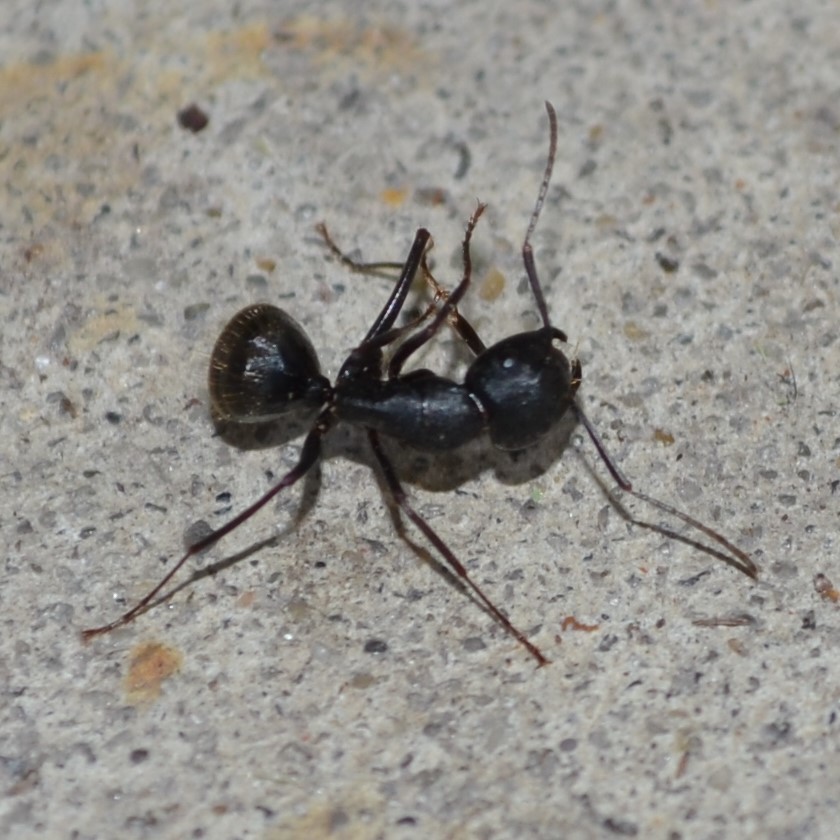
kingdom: Animalia
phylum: Arthropoda
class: Insecta
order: Hymenoptera
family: Formicidae
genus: Camponotus
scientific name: Camponotus pennsylvanicus
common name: Black carpenter ant
